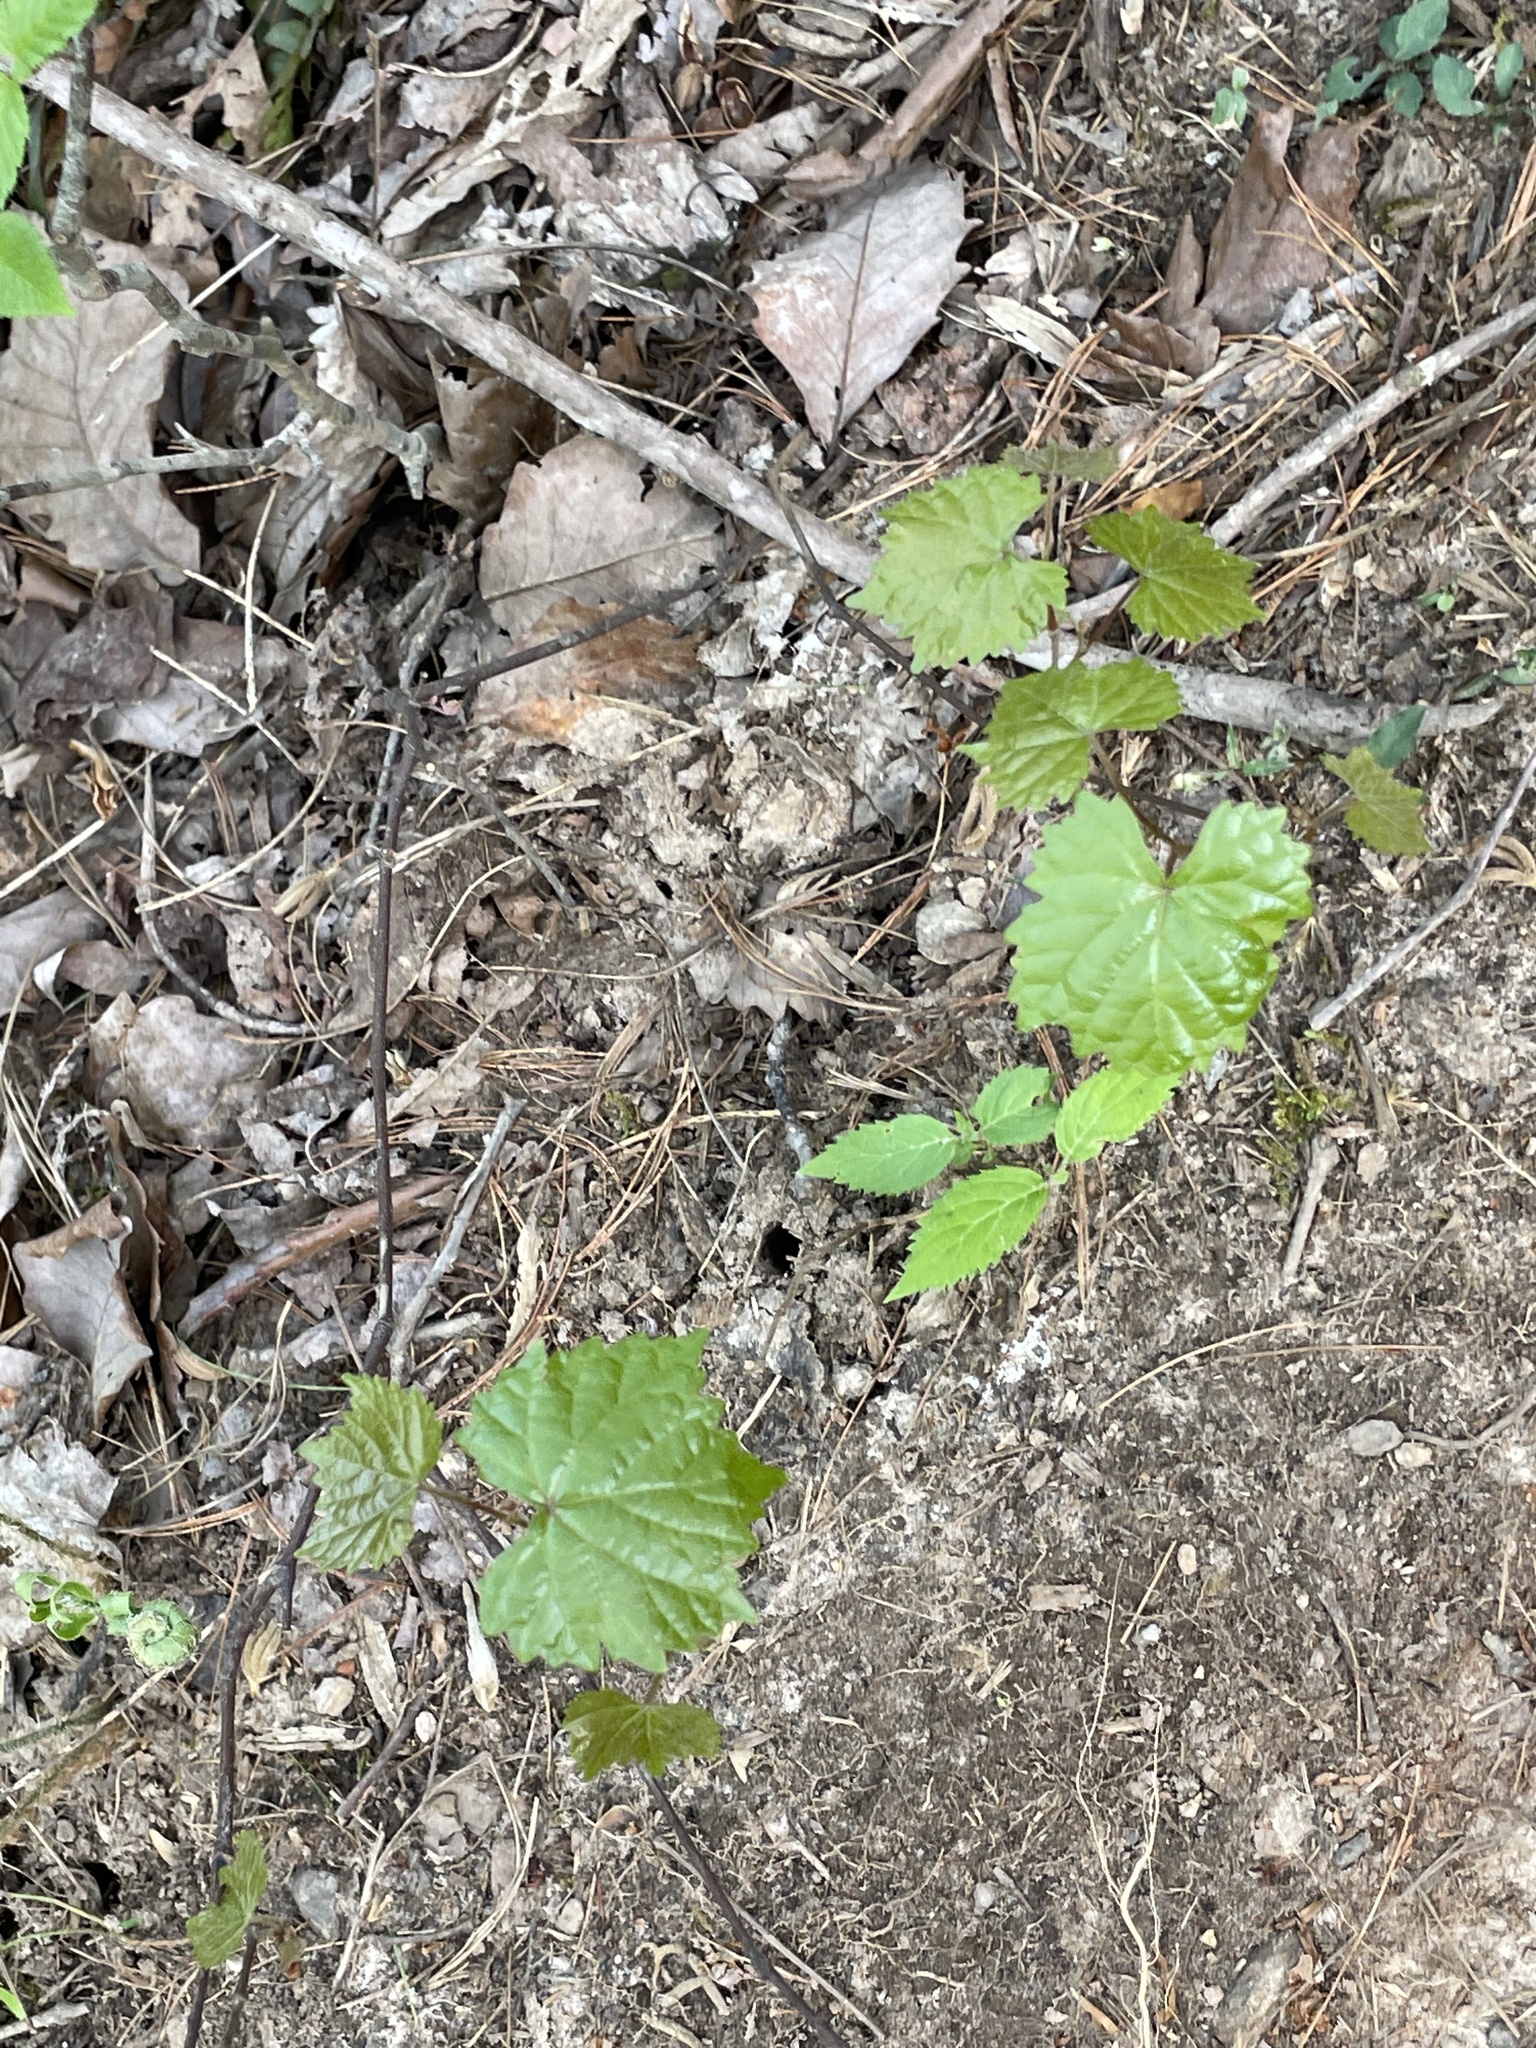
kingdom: Plantae
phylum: Tracheophyta
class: Magnoliopsida
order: Vitales
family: Vitaceae
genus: Vitis
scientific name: Vitis rotundifolia
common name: Muscadine grape
